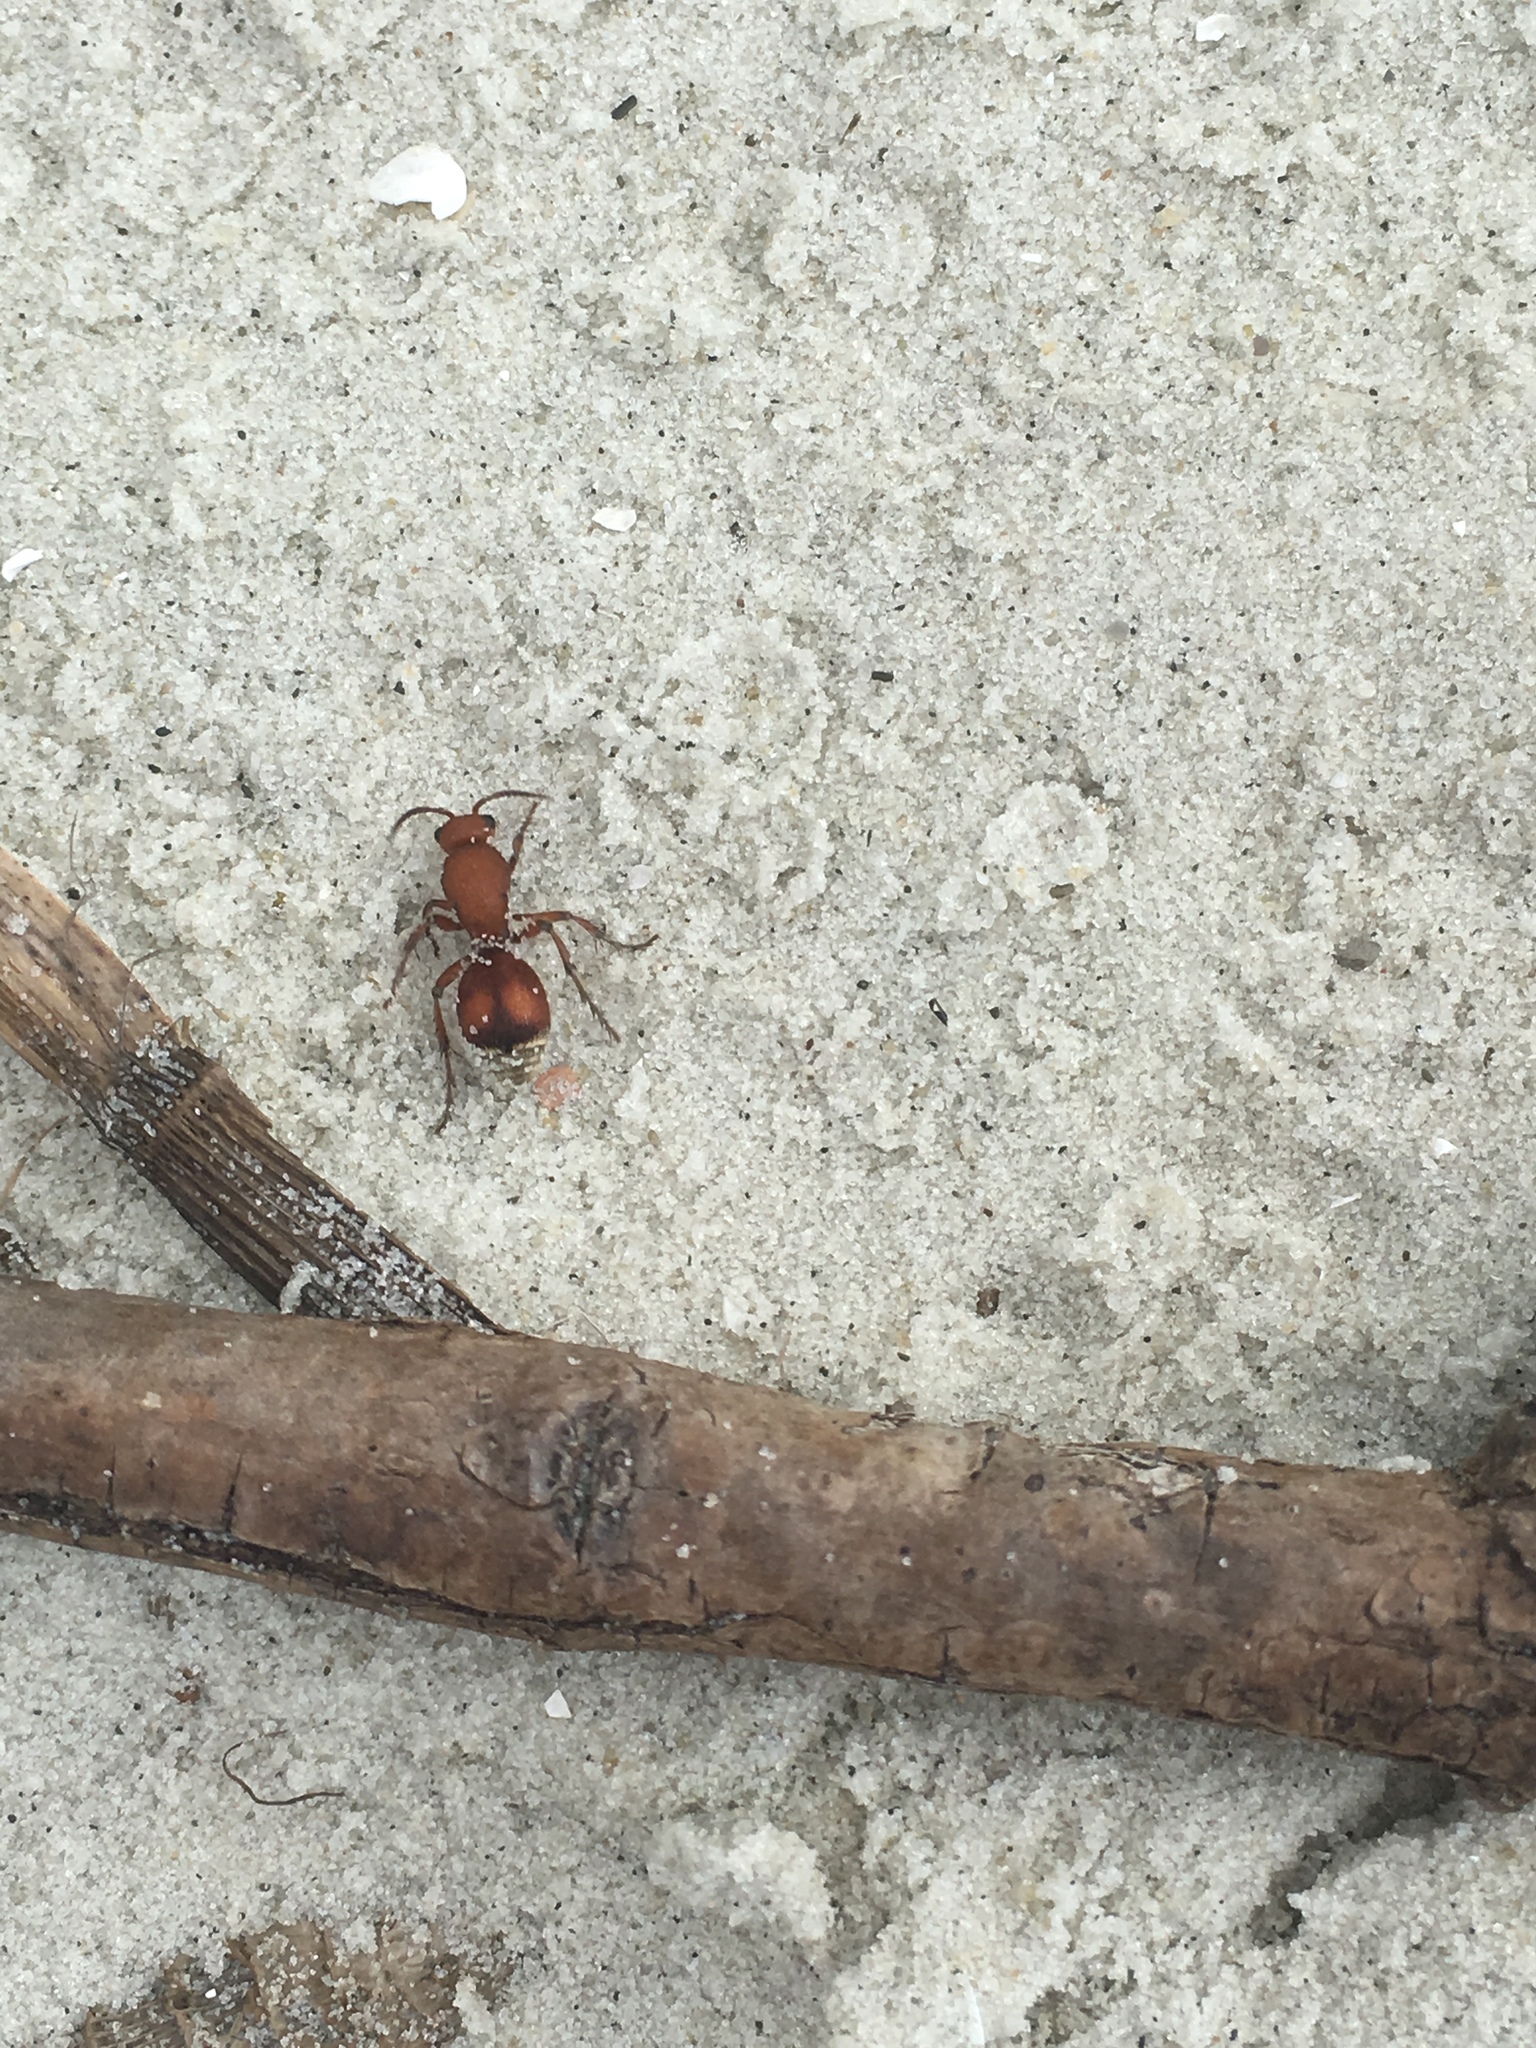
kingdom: Animalia
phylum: Arthropoda
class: Insecta
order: Hymenoptera
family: Mutillidae
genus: Dasymutilla
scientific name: Dasymutilla
